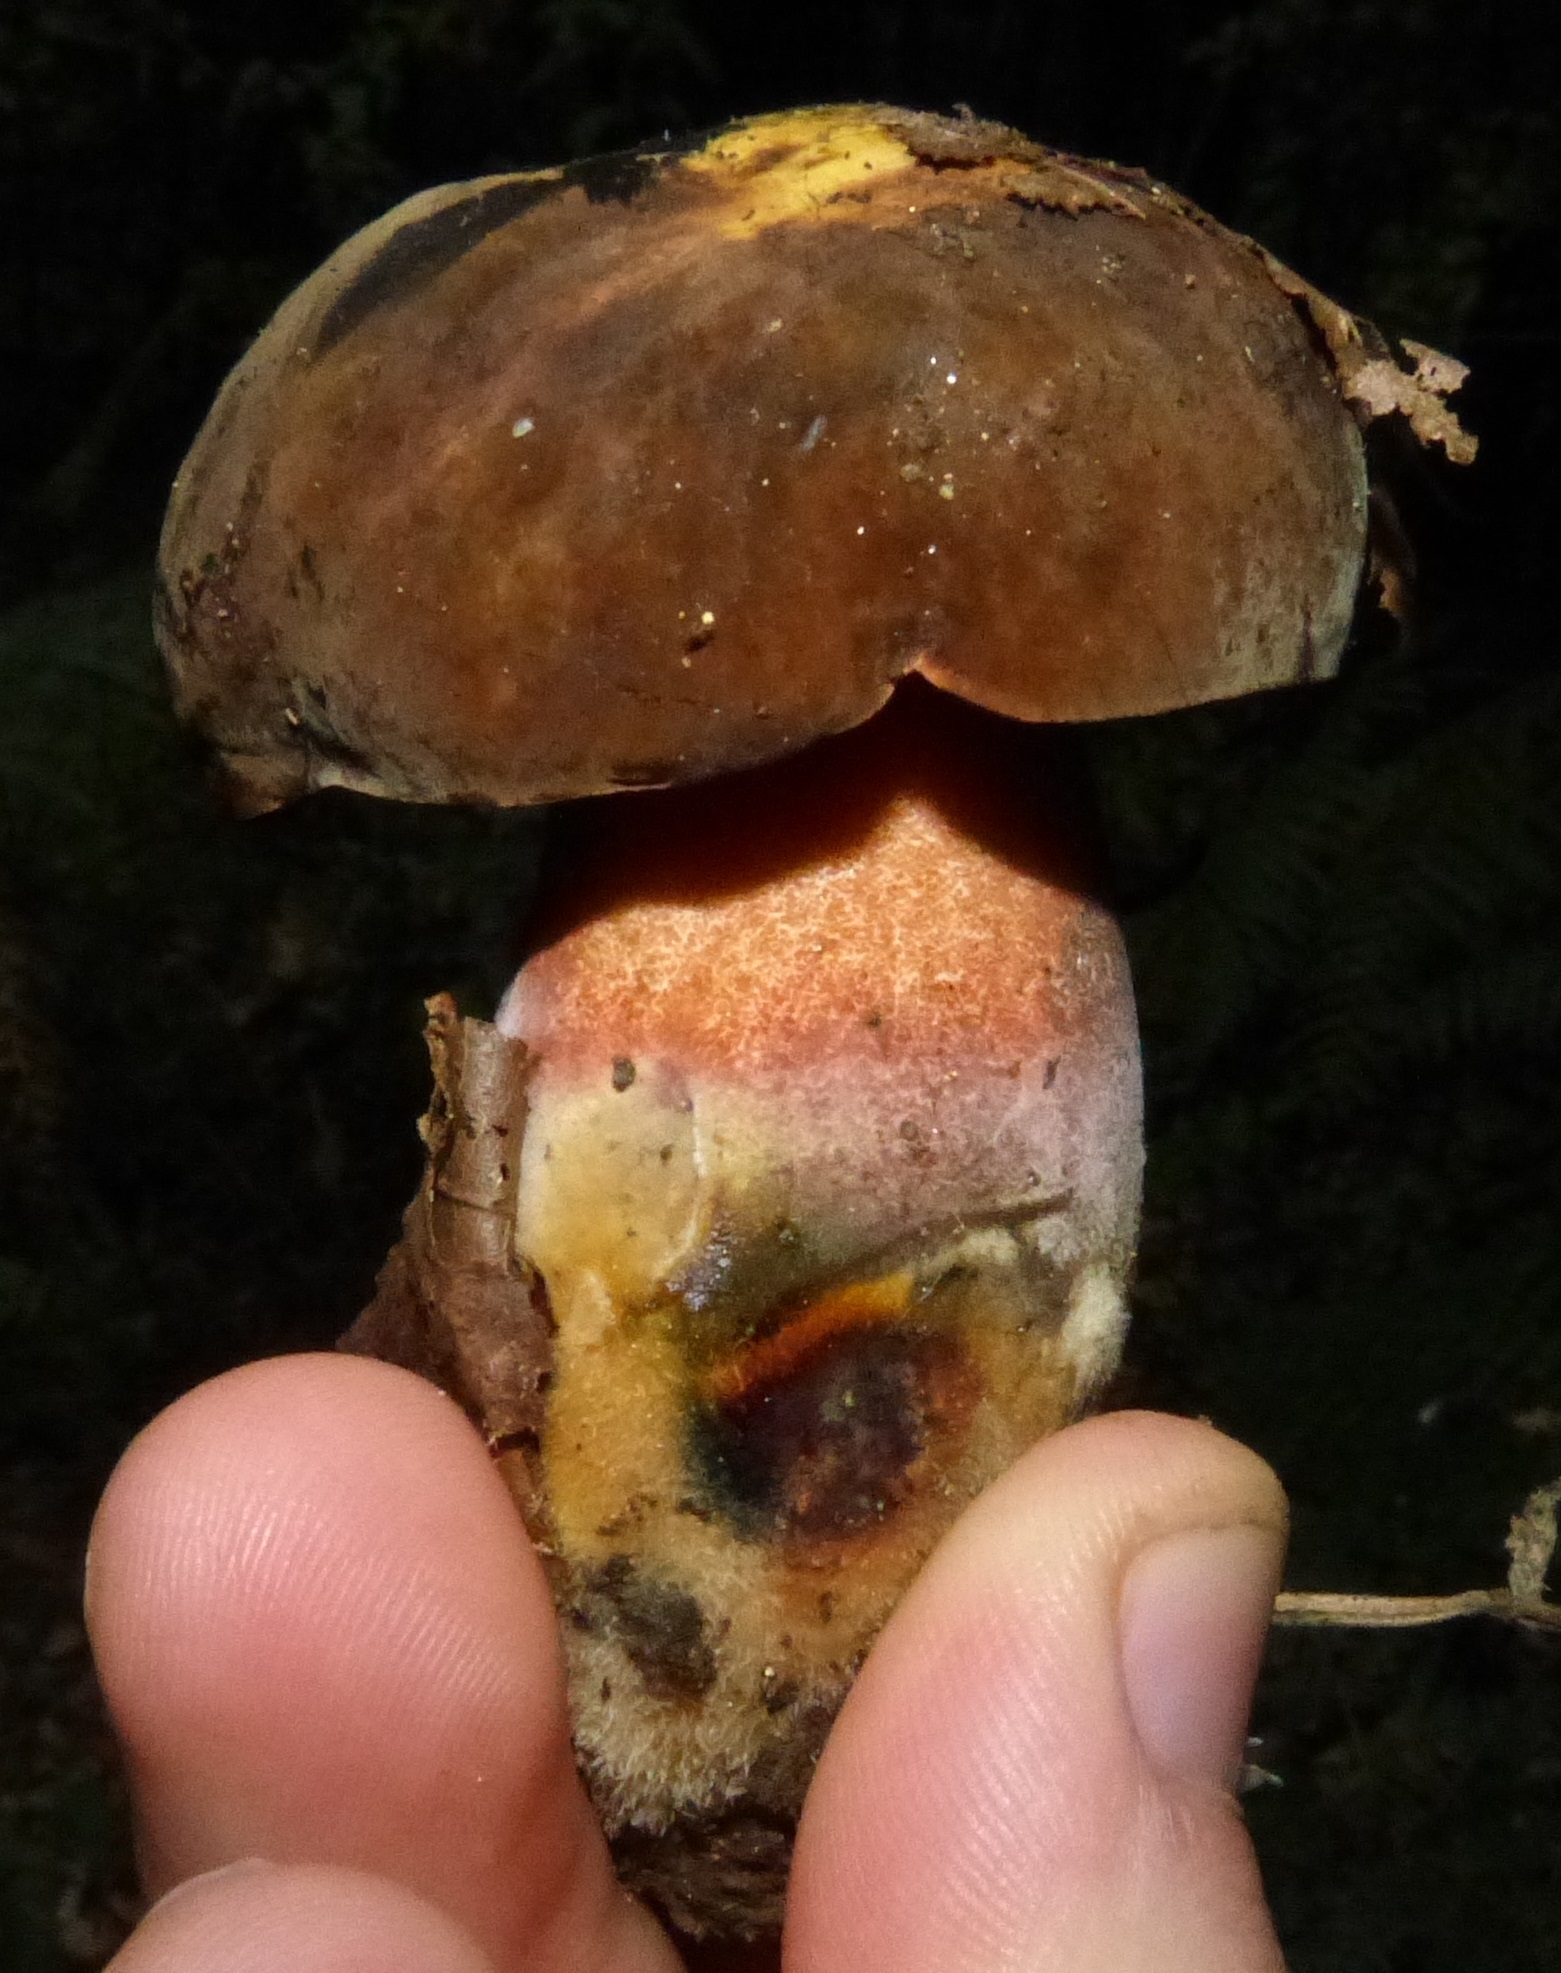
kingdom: Fungi
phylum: Basidiomycota
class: Agaricomycetes
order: Boletales
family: Boletaceae
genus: Neoboletus
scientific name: Neoboletus erythropus
